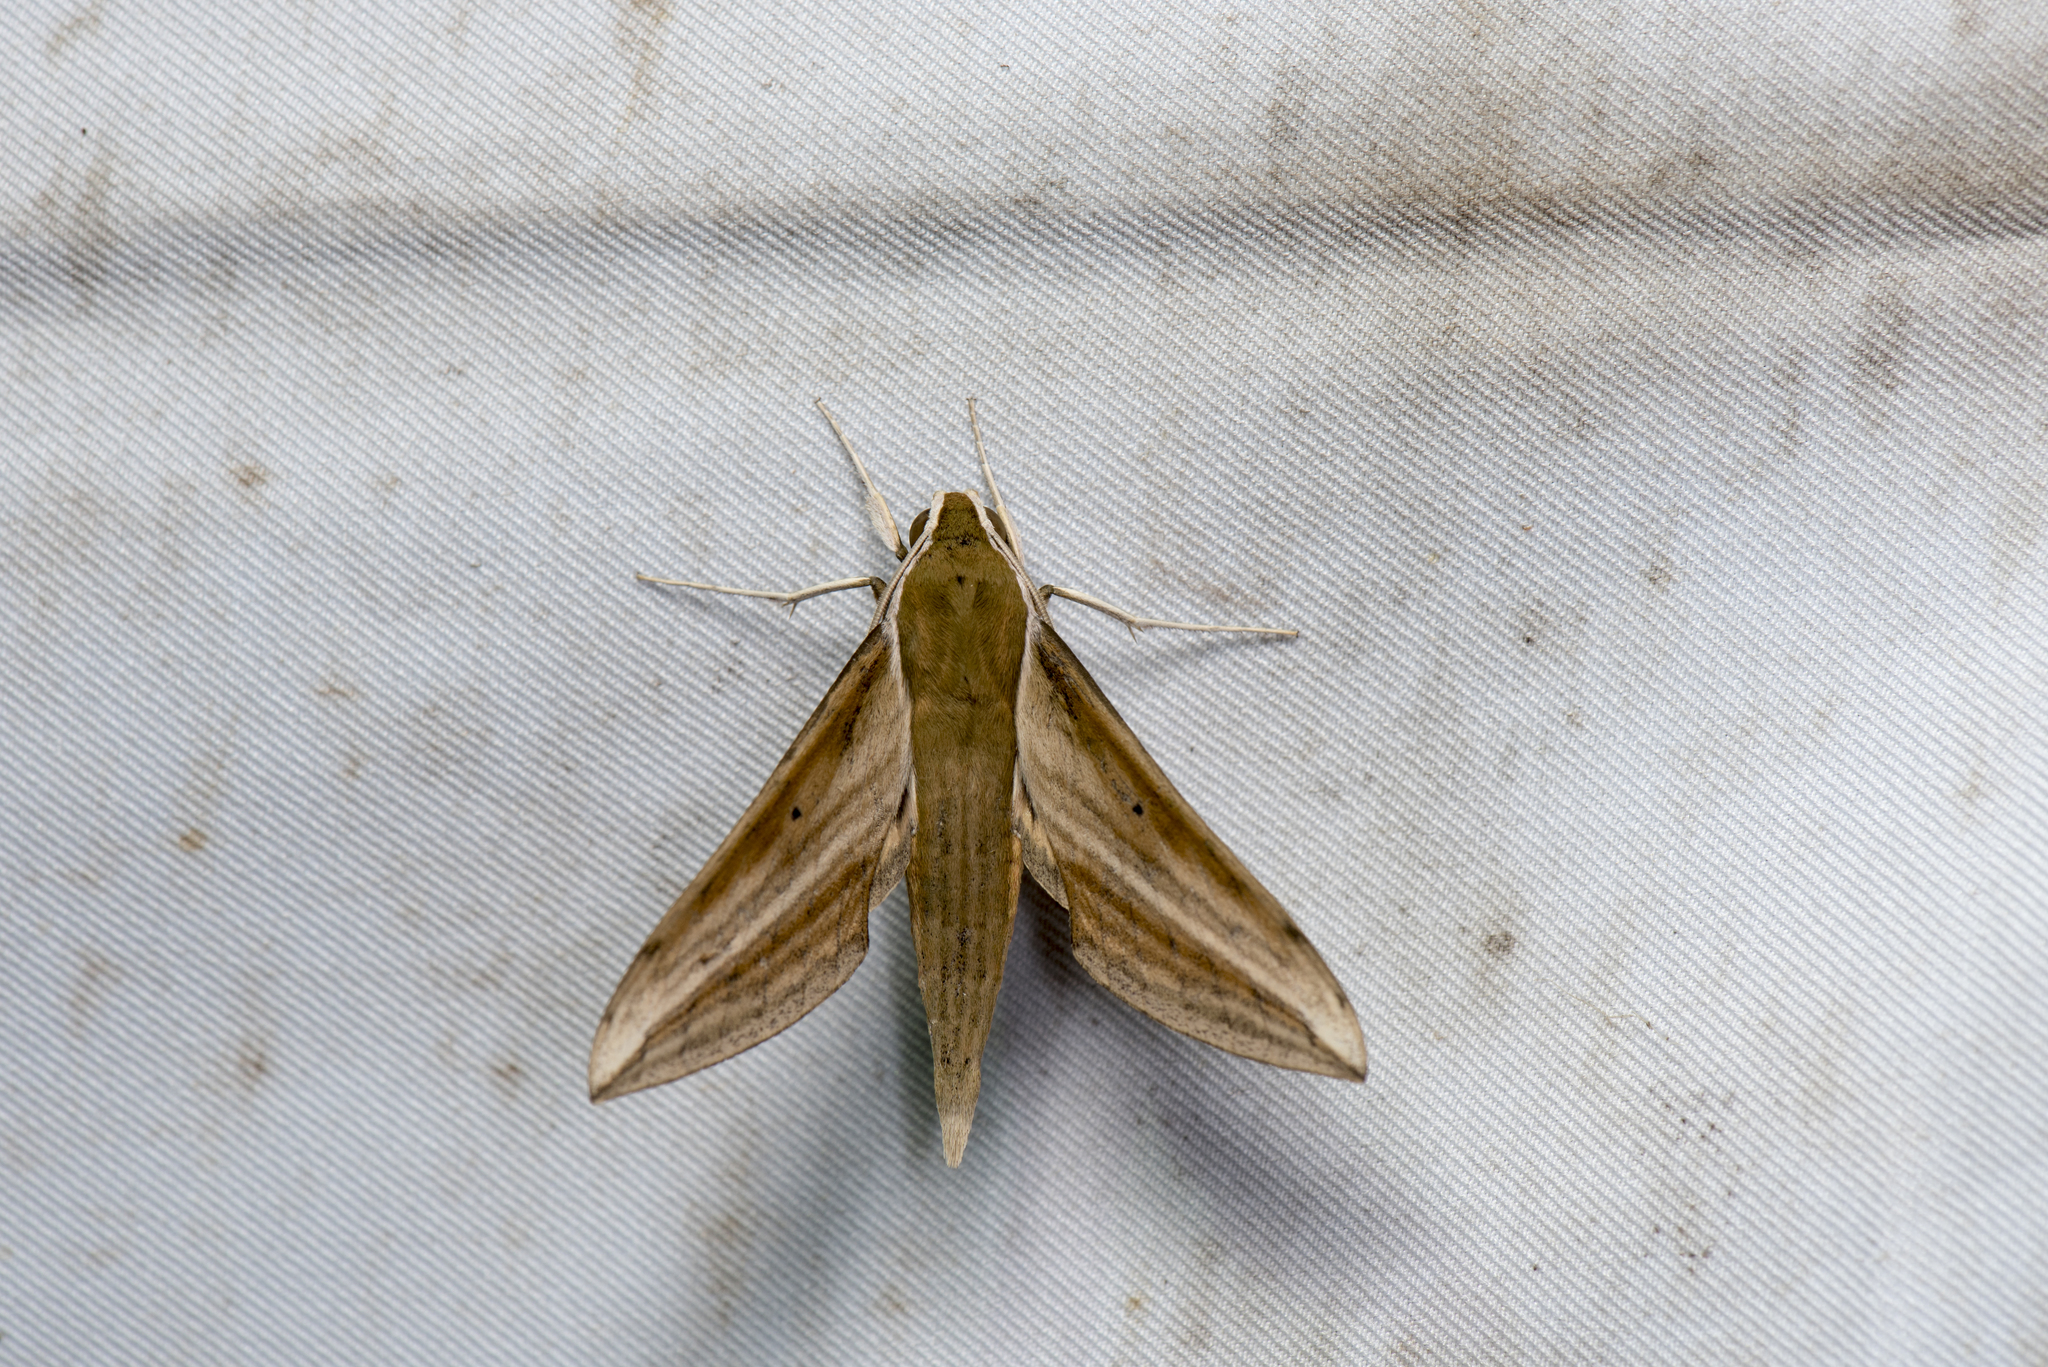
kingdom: Animalia
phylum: Arthropoda
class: Insecta
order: Lepidoptera
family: Sphingidae
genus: Cechetra
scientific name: Cechetra minor
